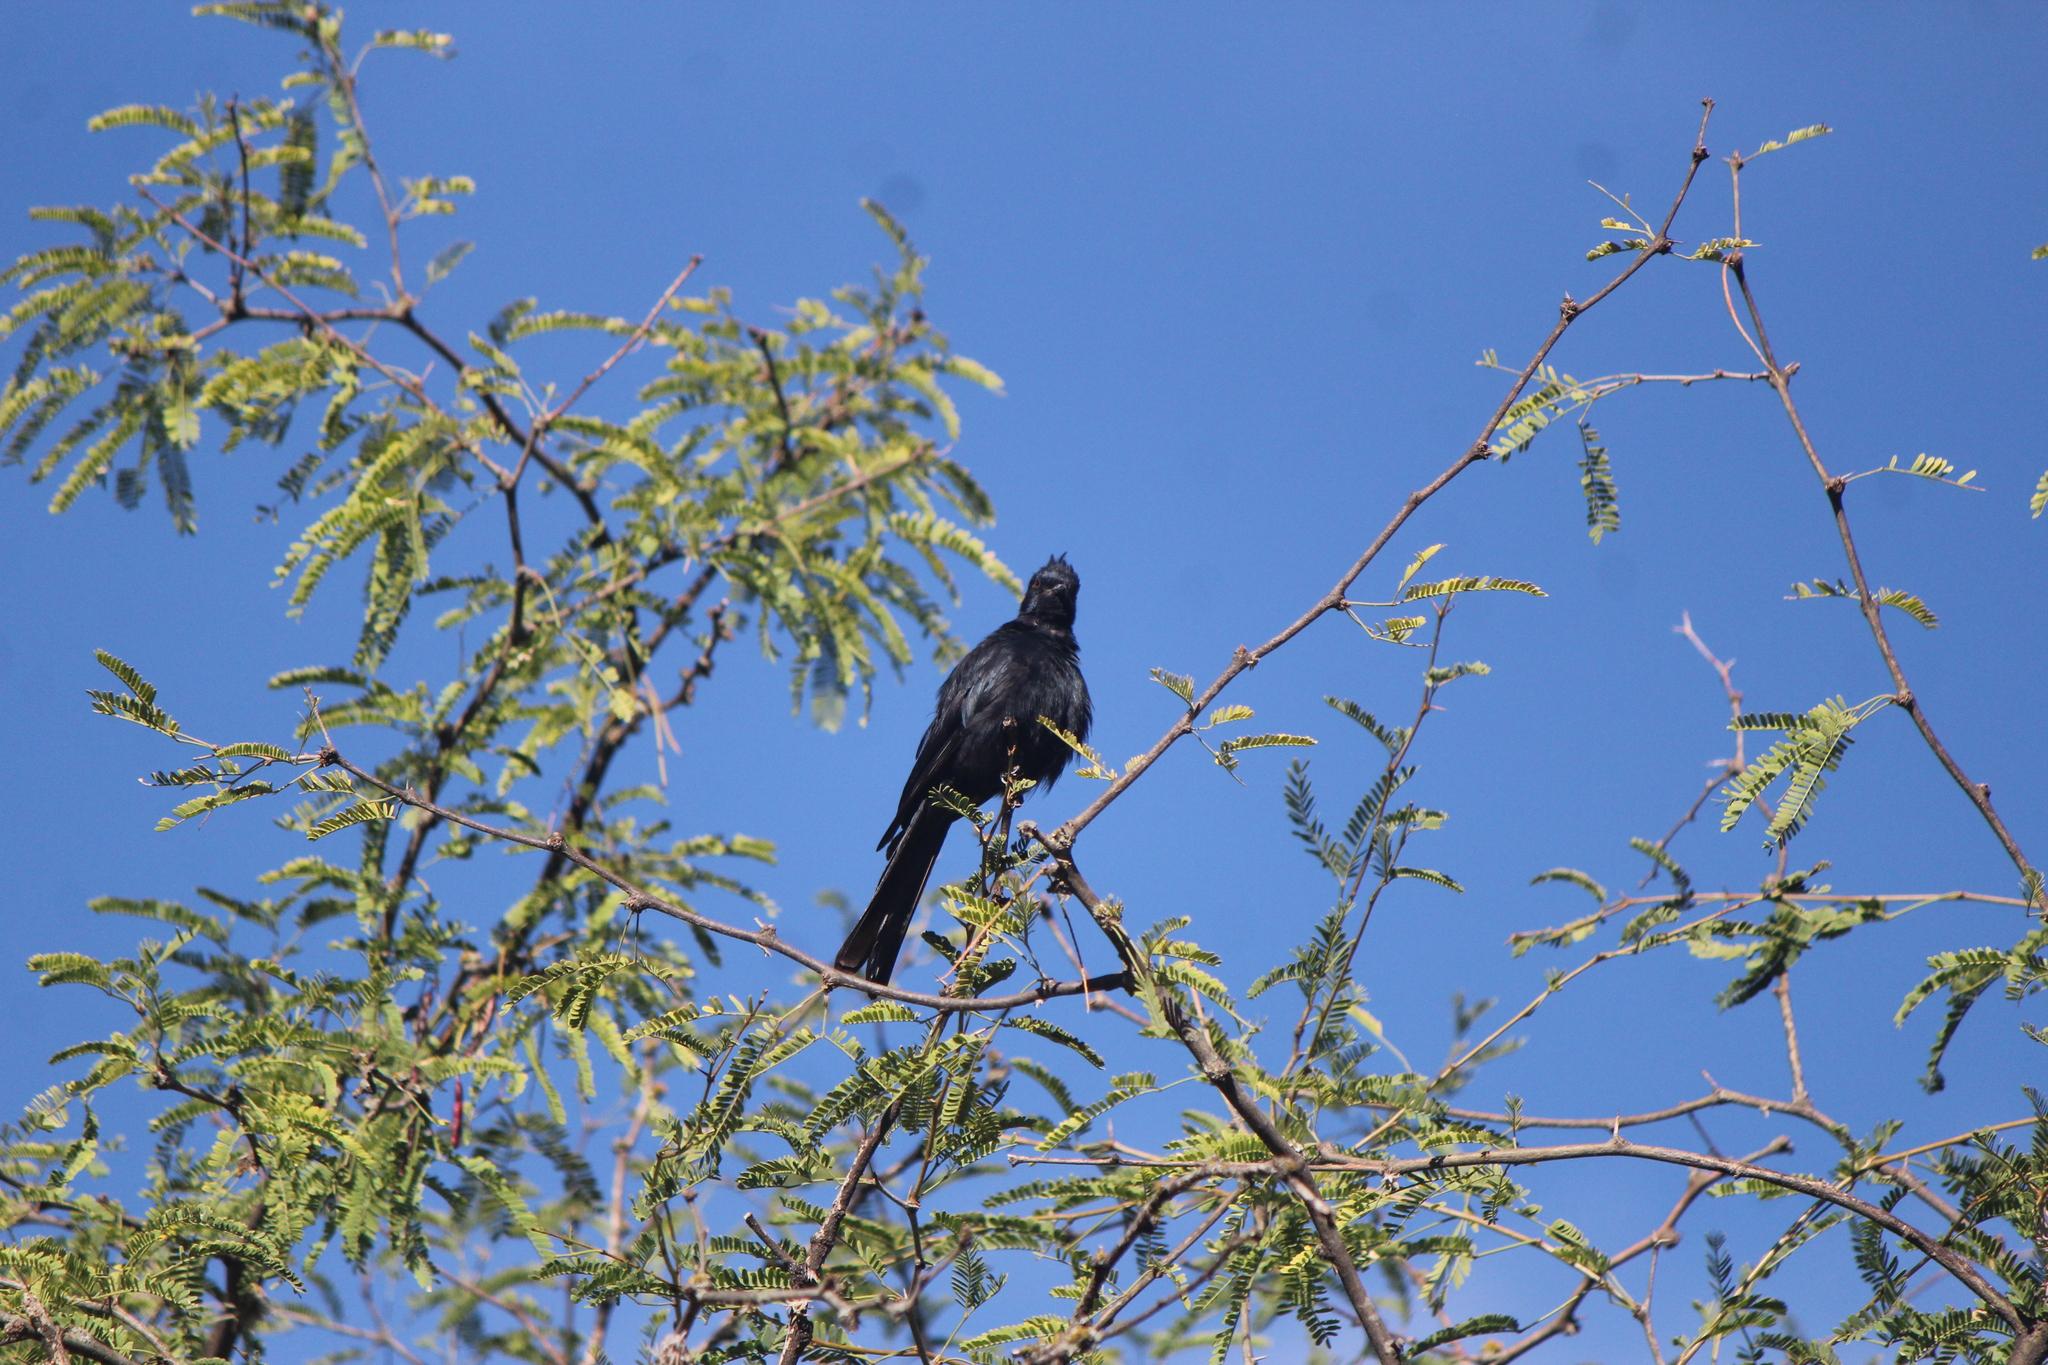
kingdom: Animalia
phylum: Chordata
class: Aves
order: Passeriformes
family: Ptilogonatidae
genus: Phainopepla
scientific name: Phainopepla nitens
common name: Phainopepla
